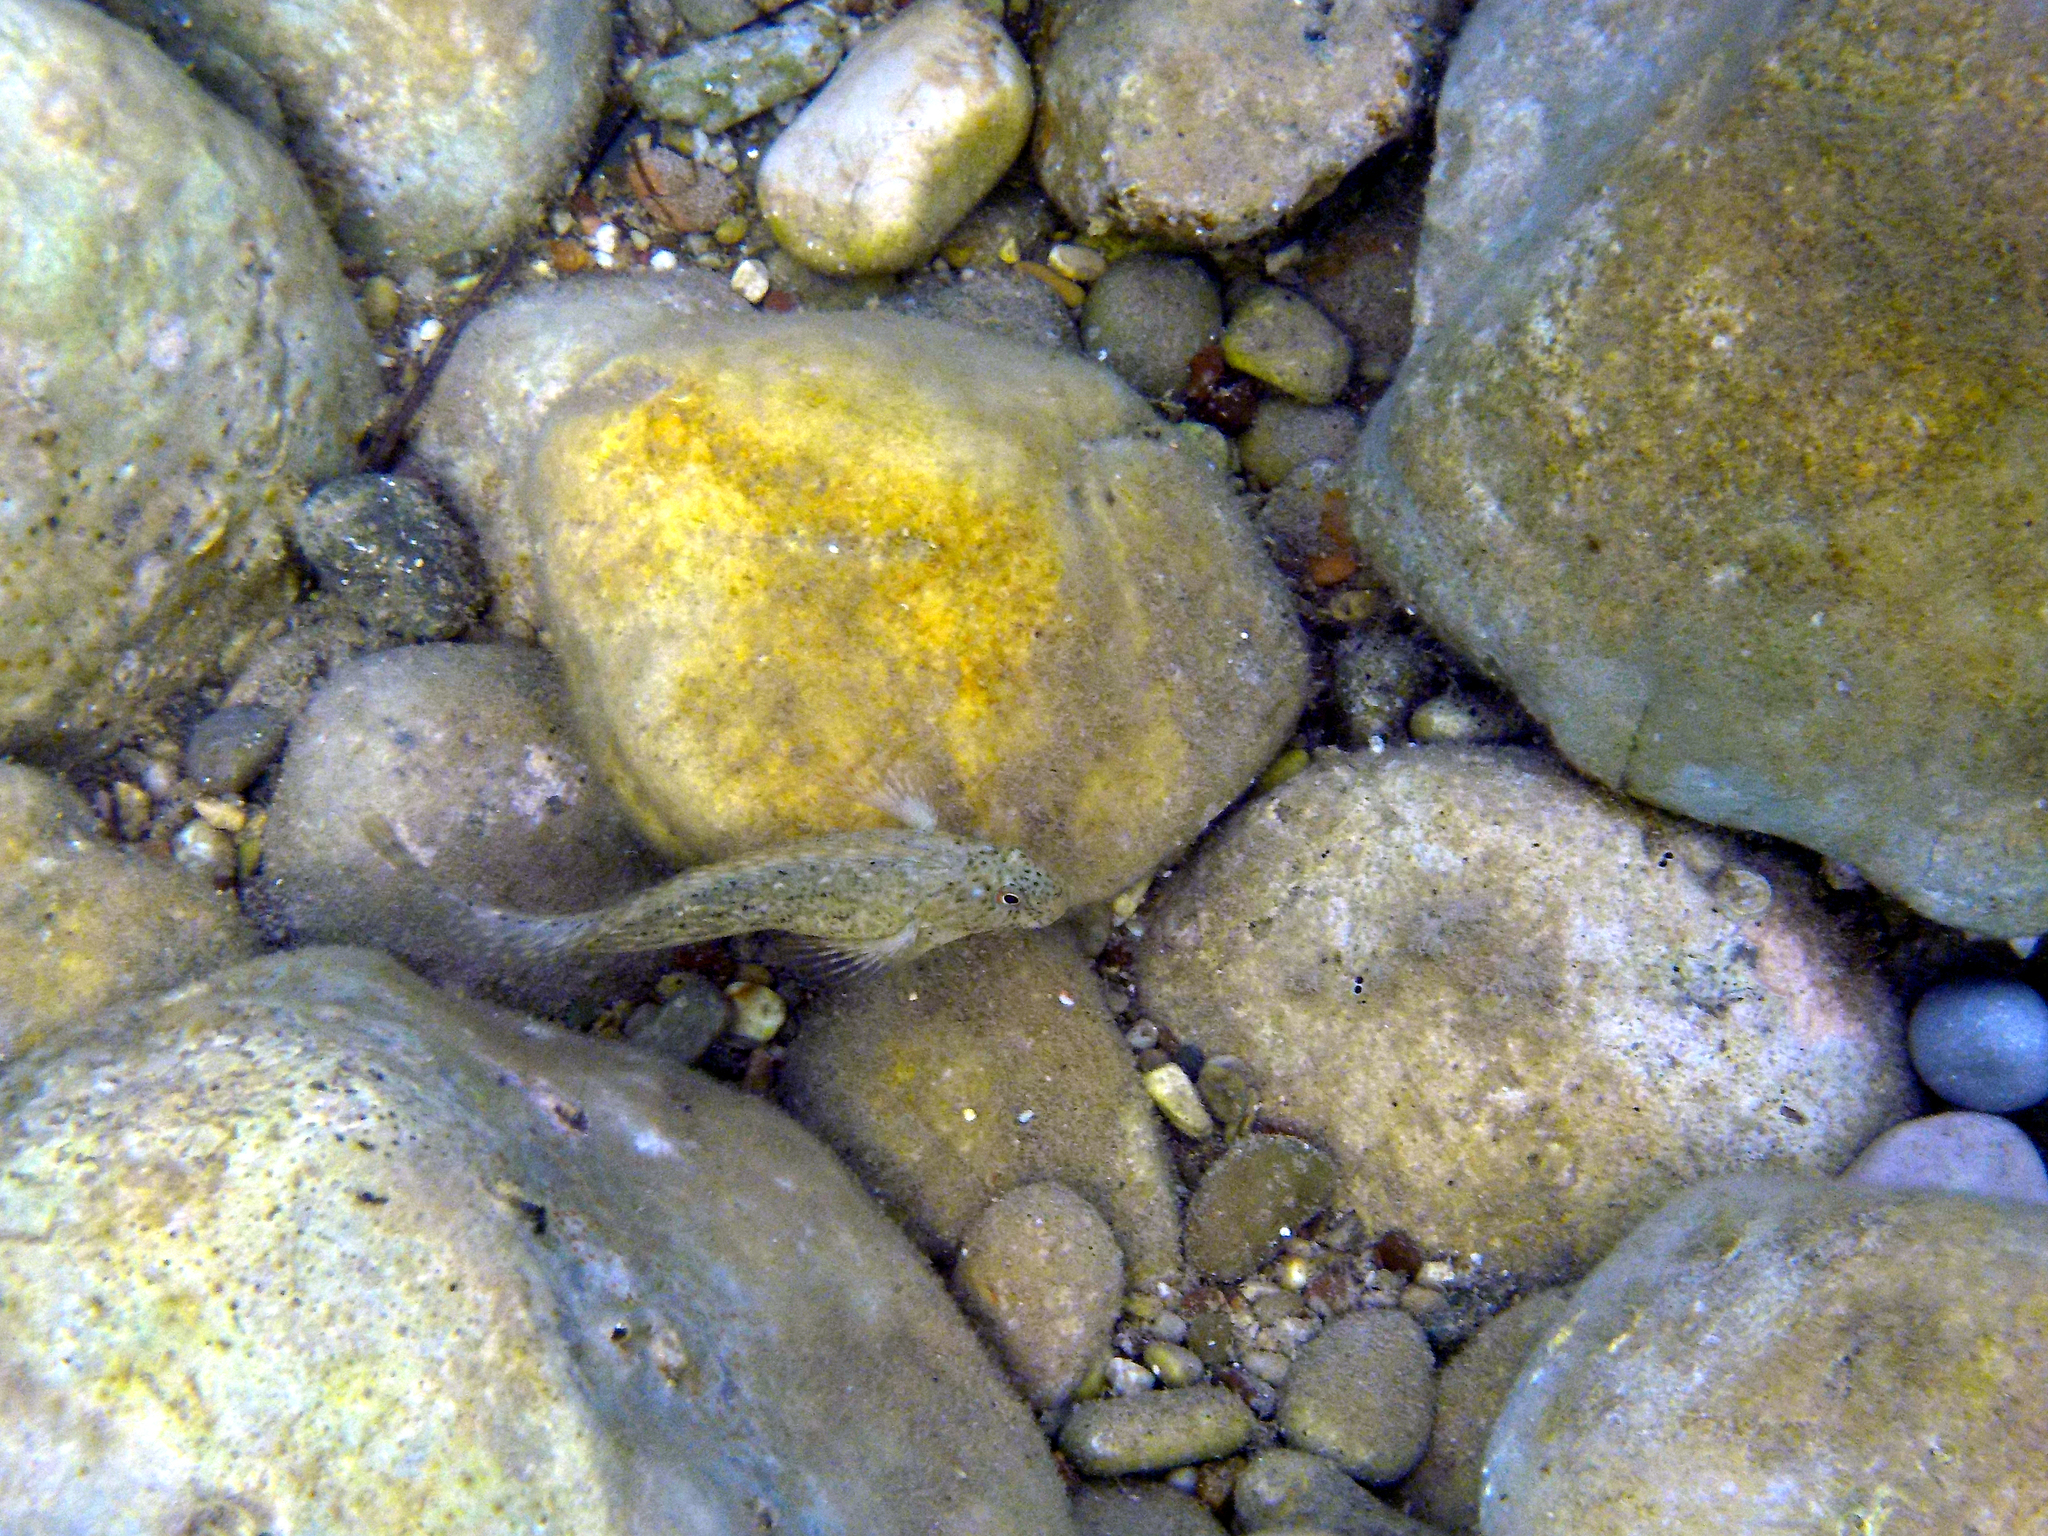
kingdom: Animalia
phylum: Chordata
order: Perciformes
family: Blenniidae
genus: Parablennius
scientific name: Parablennius sanguinolentus
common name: Black sea blenny
